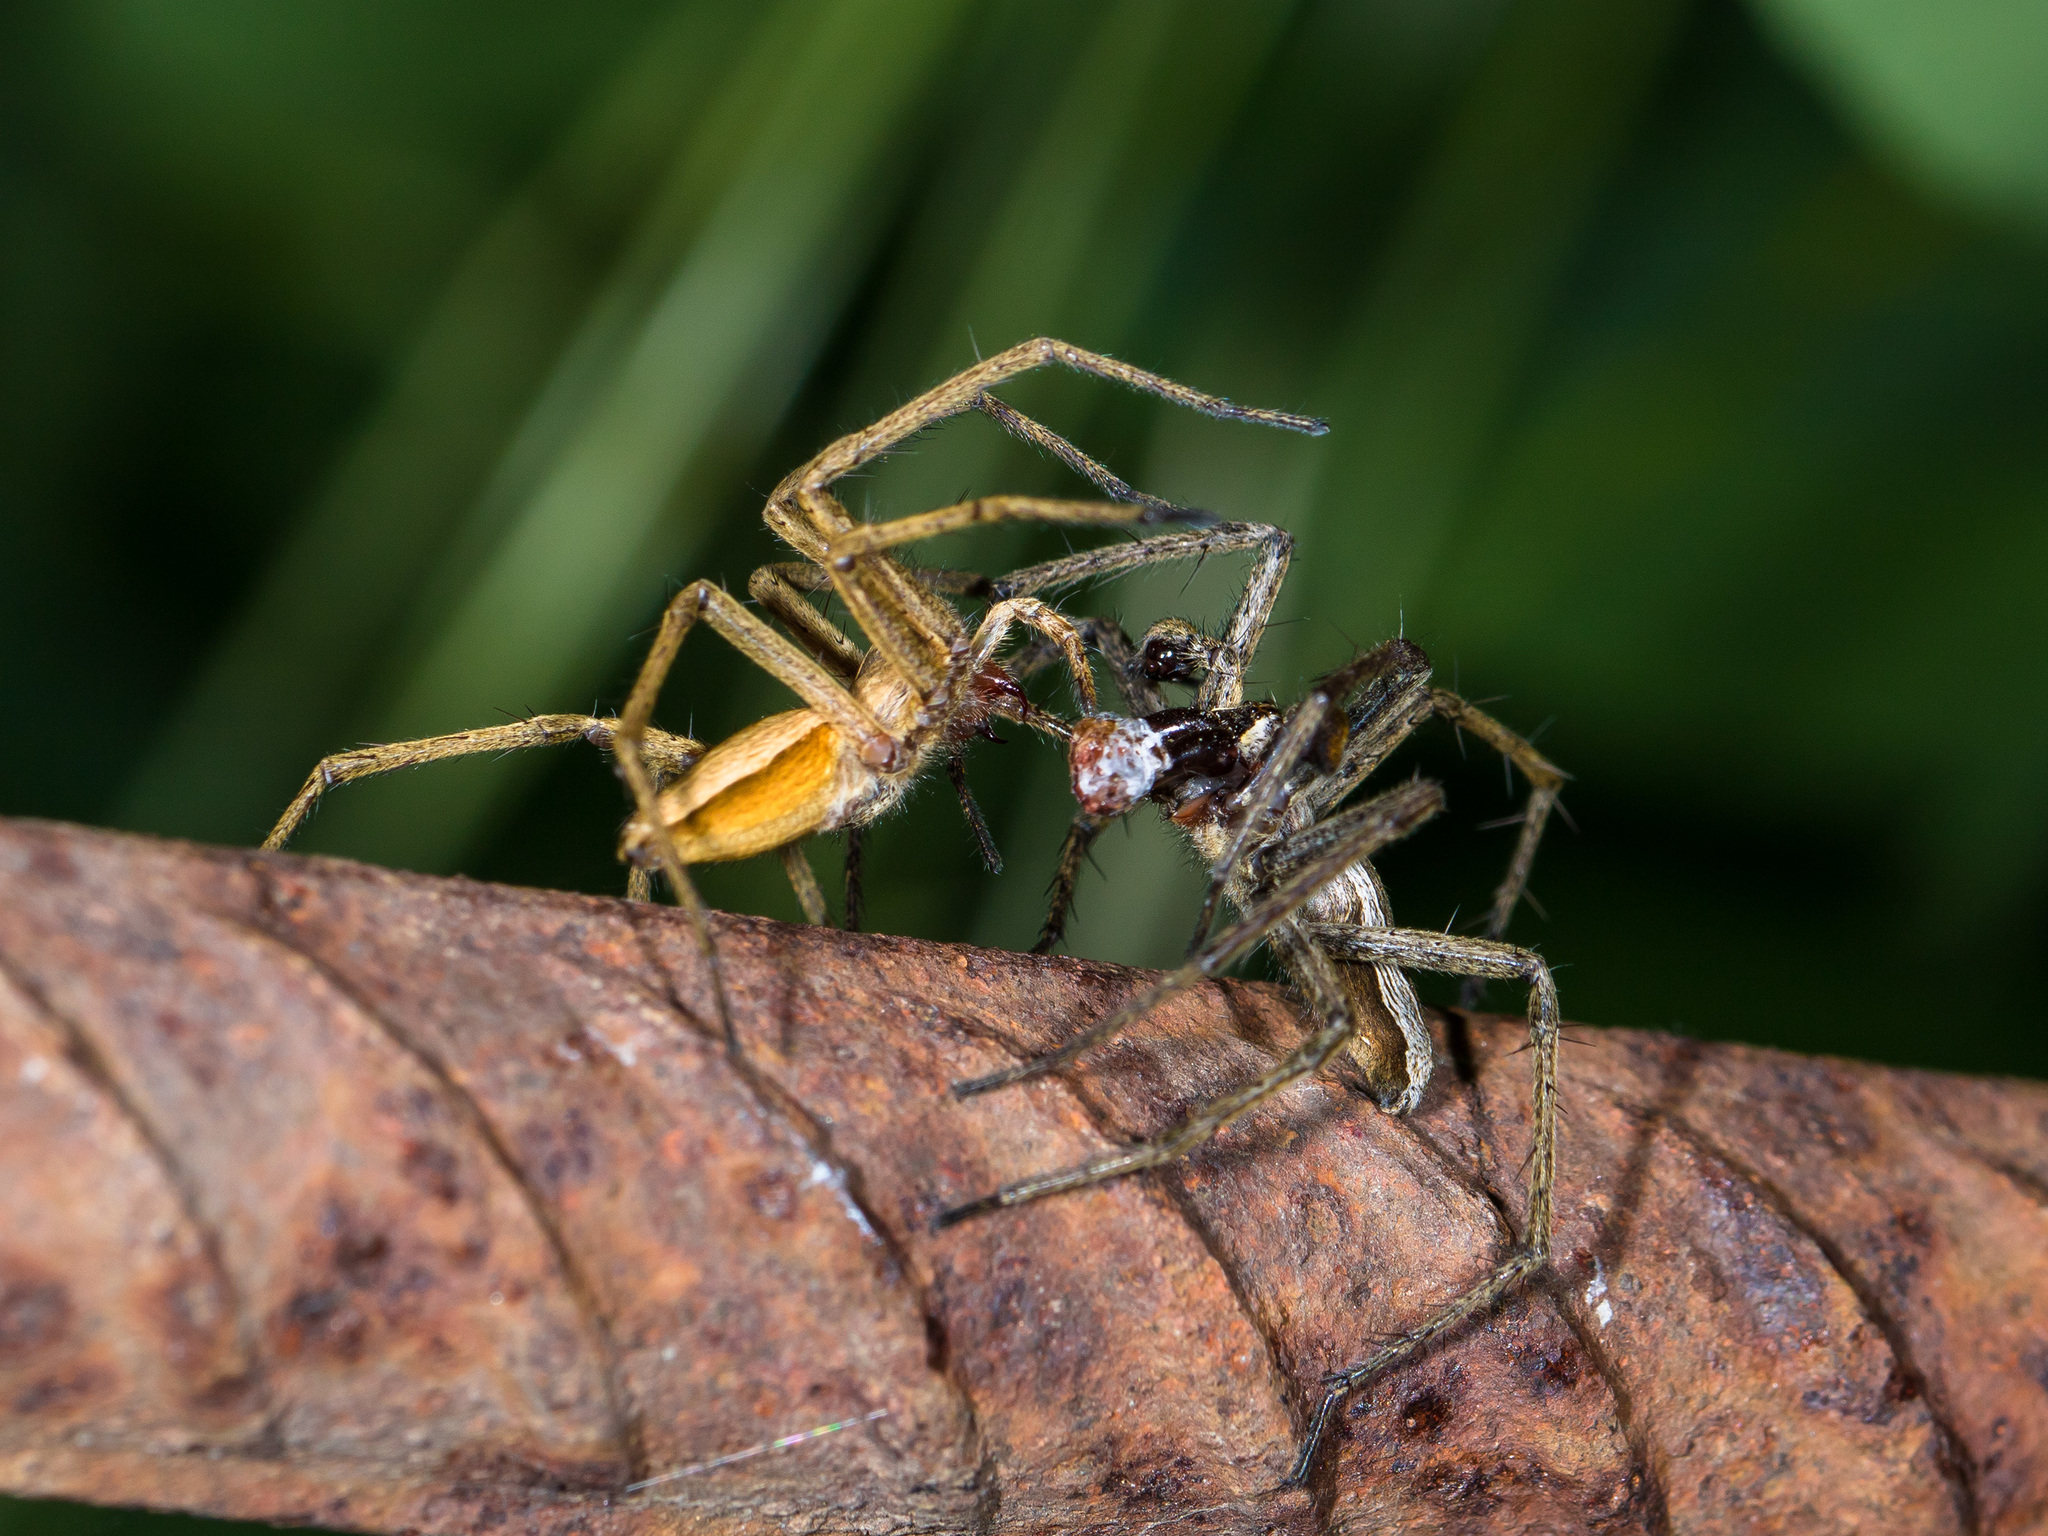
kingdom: Animalia
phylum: Arthropoda
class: Arachnida
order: Araneae
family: Pisauridae
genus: Pisaura
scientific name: Pisaura mirabilis
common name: Tent spider
